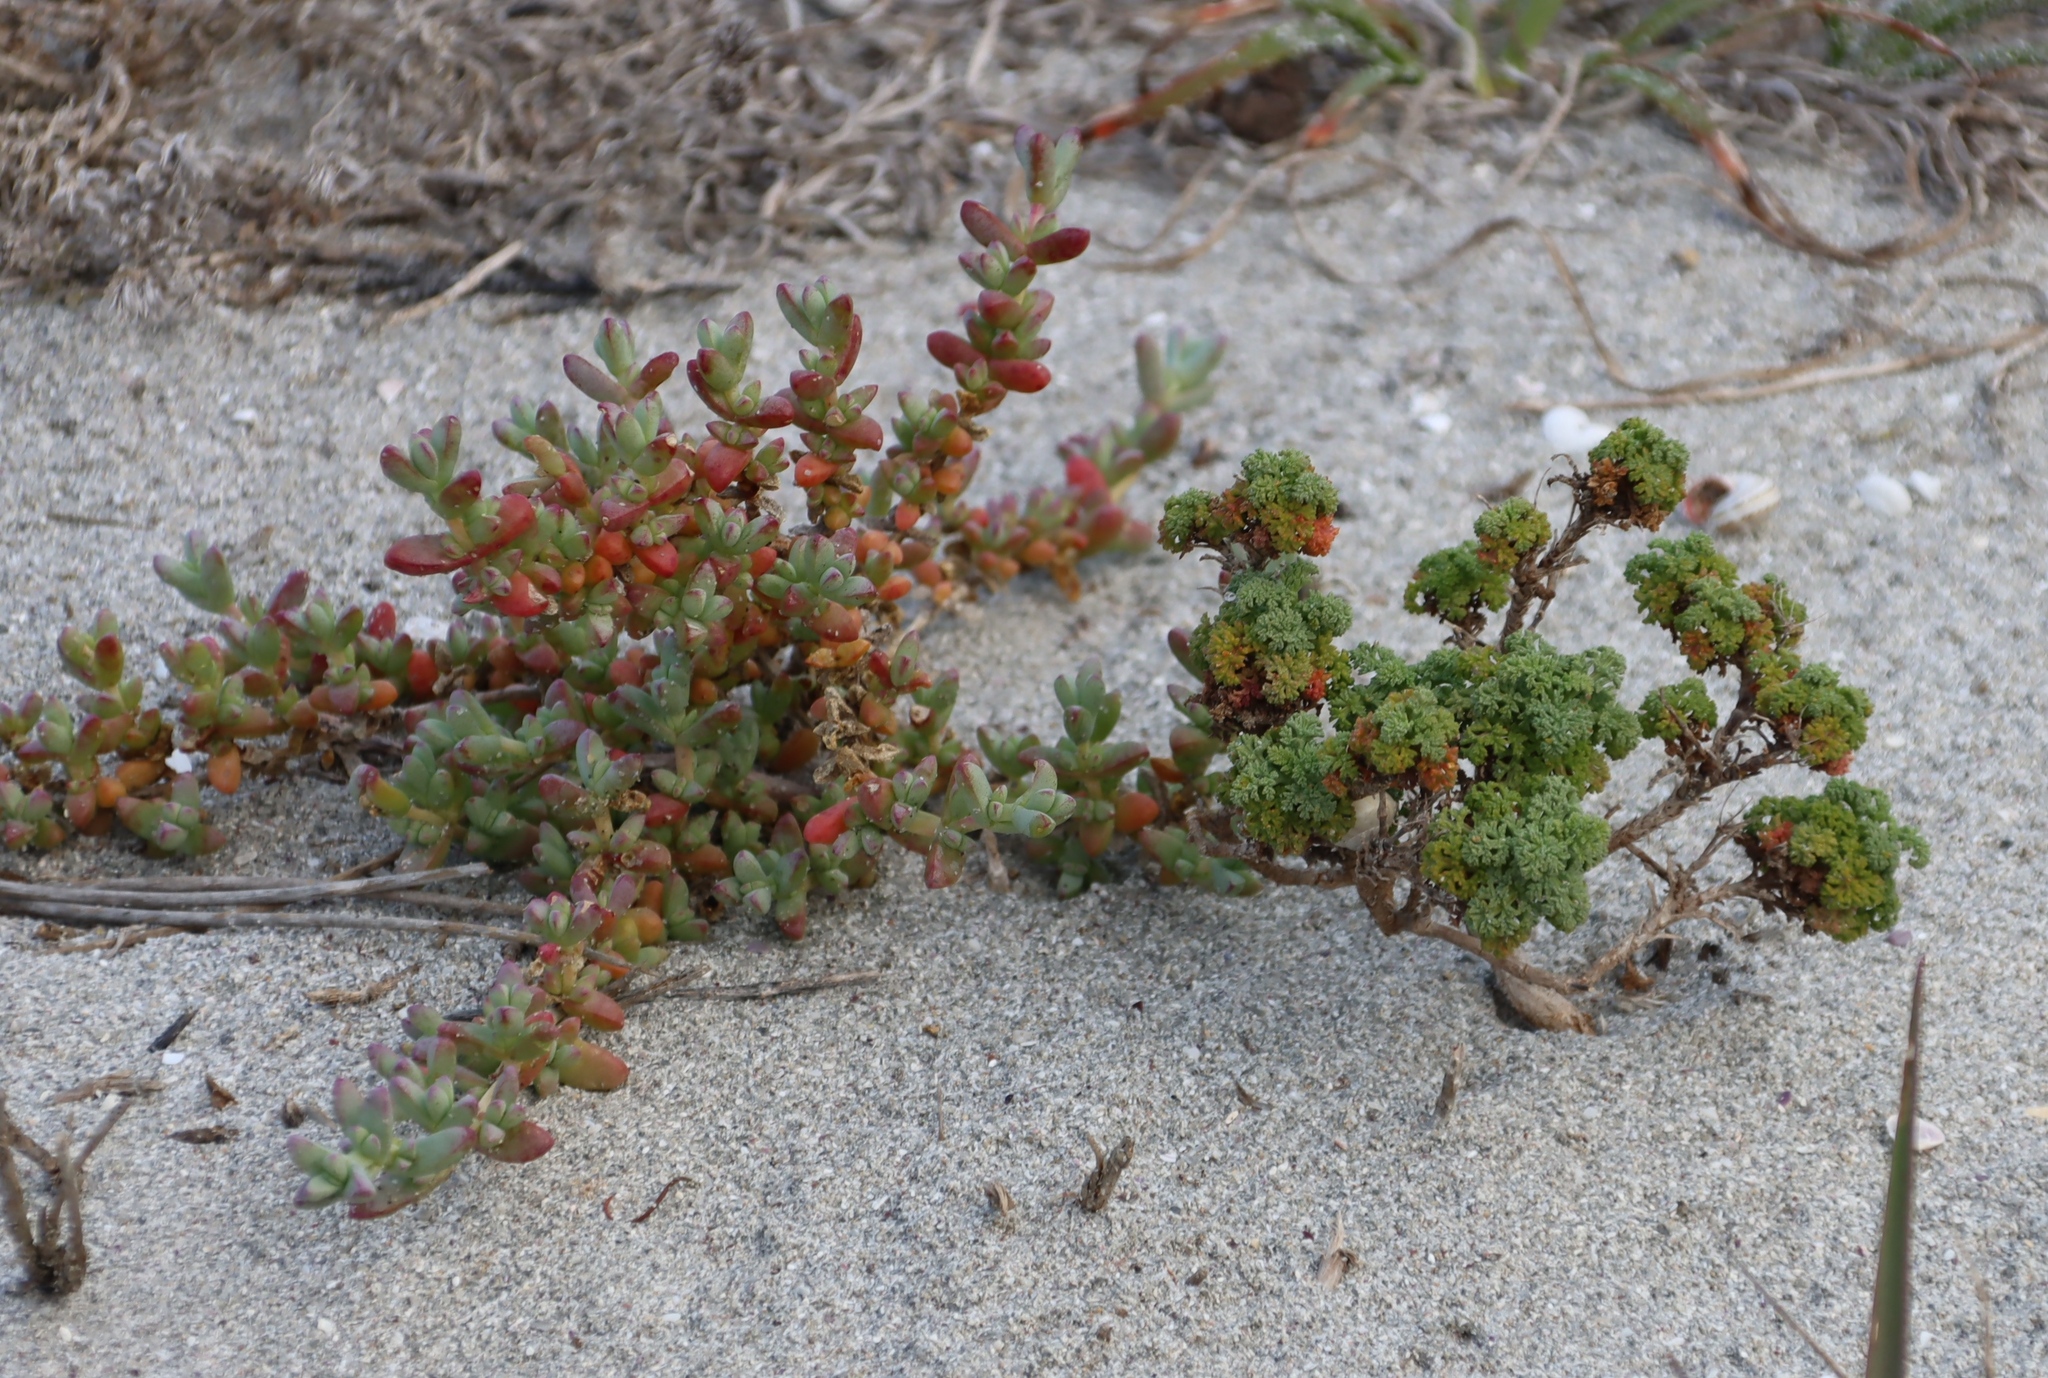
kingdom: Plantae
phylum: Tracheophyta
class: Magnoliopsida
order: Caryophyllales
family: Aizoaceae
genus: Amphibolia
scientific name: Amphibolia laevis
